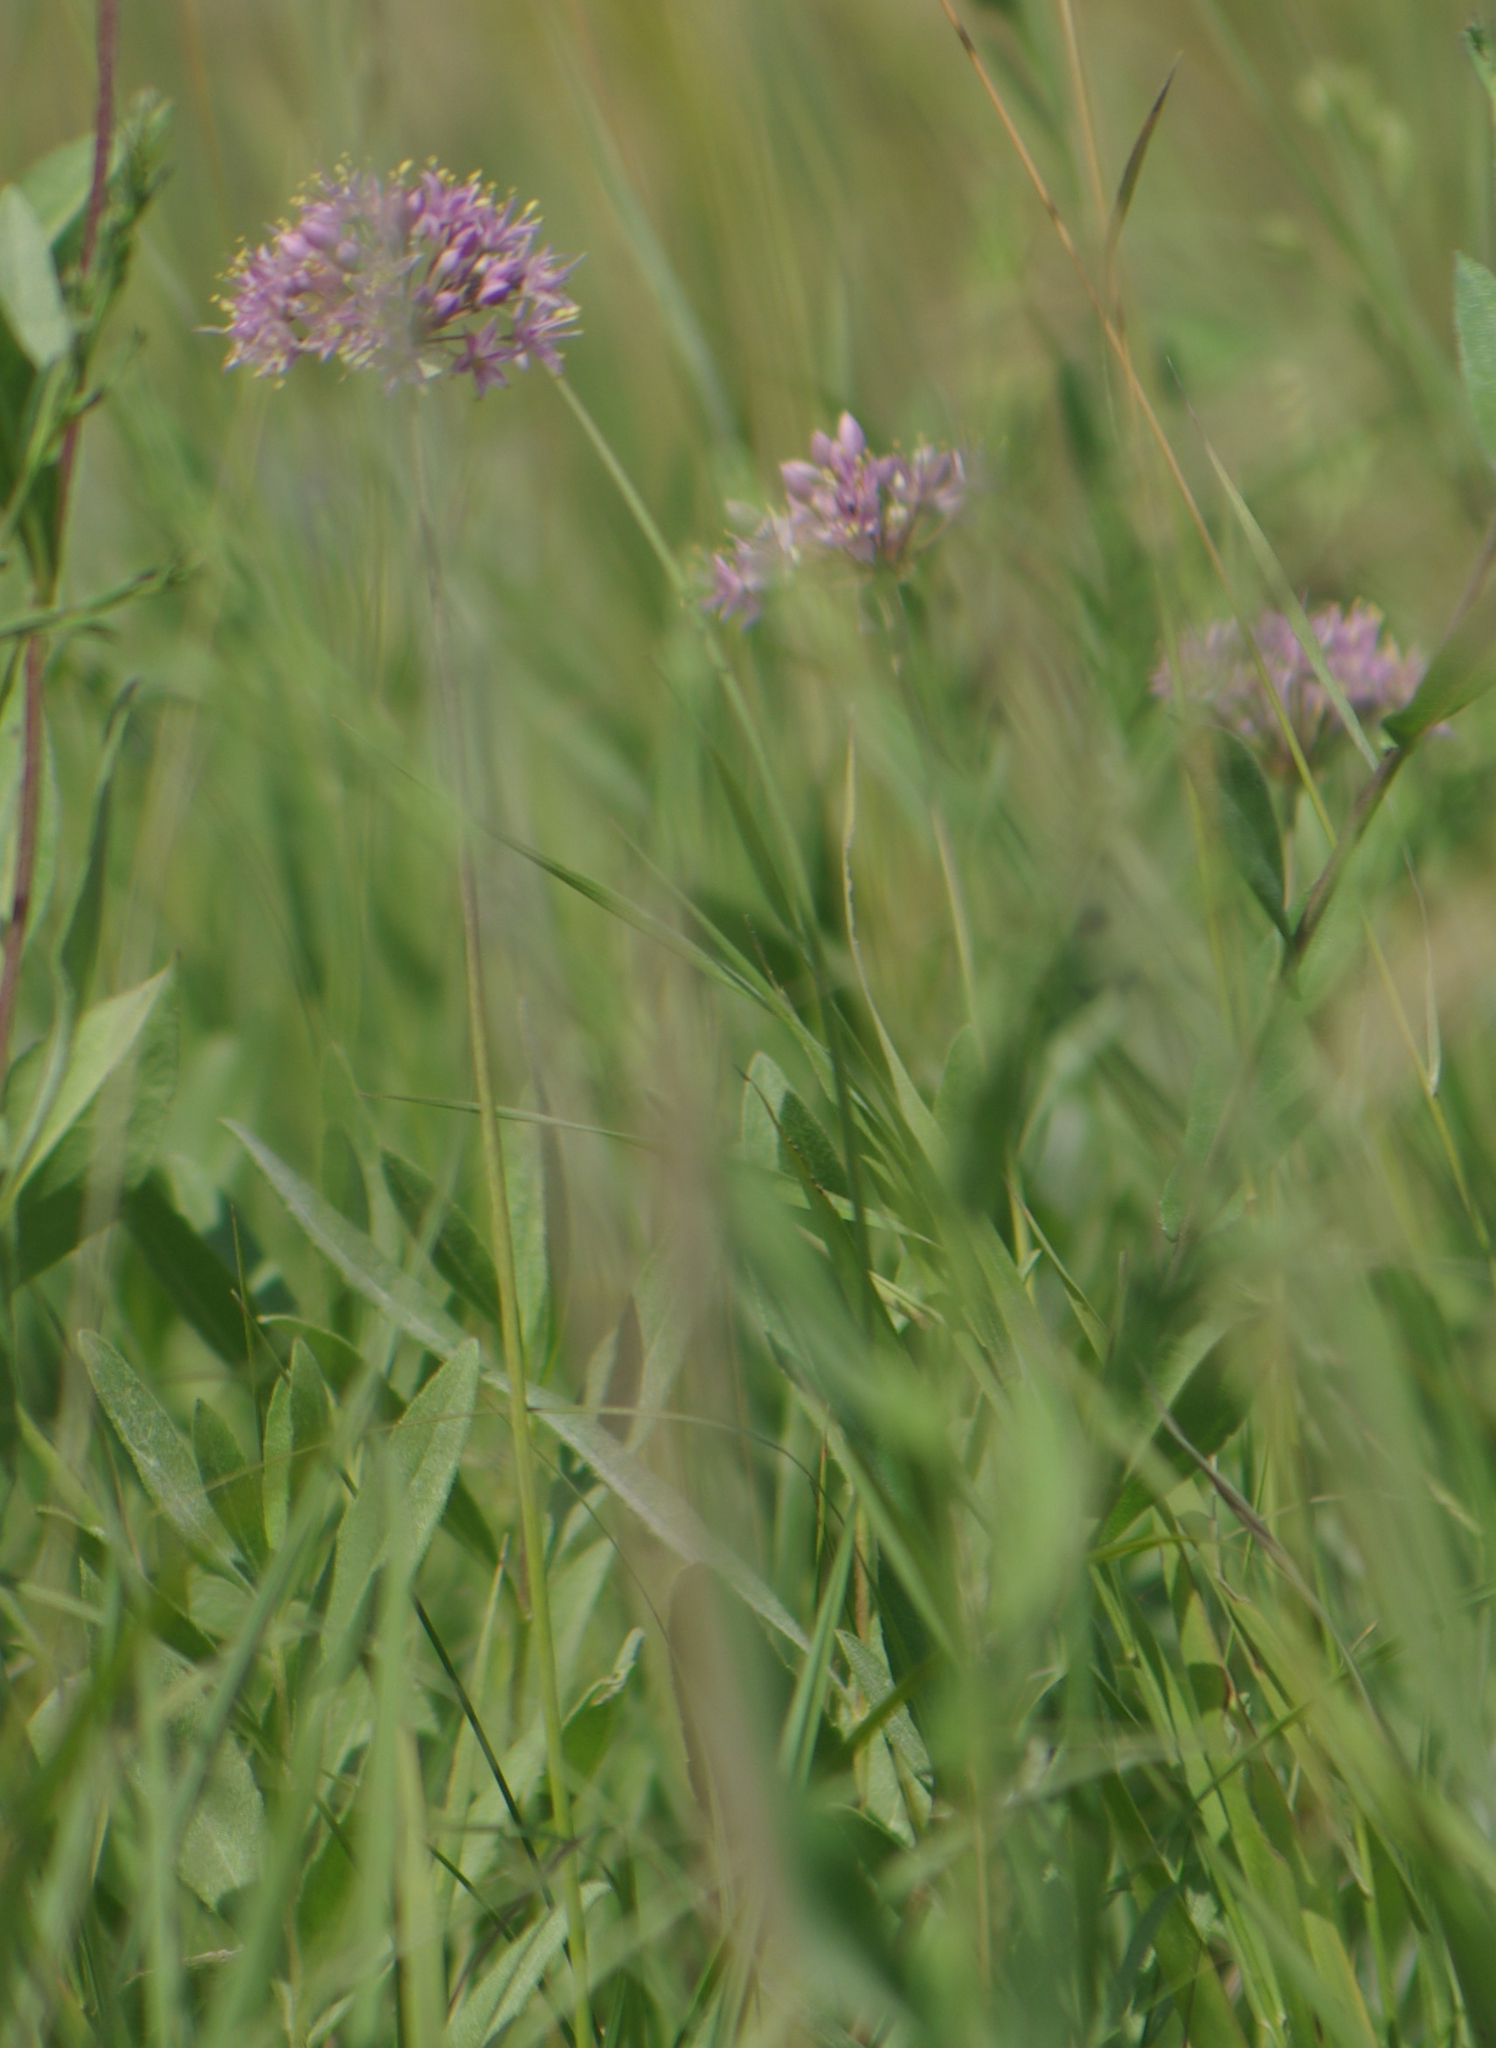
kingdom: Plantae
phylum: Tracheophyta
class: Liliopsida
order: Asparagales
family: Amaryllidaceae
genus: Allium
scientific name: Allium stellatum
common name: Autumn onion
